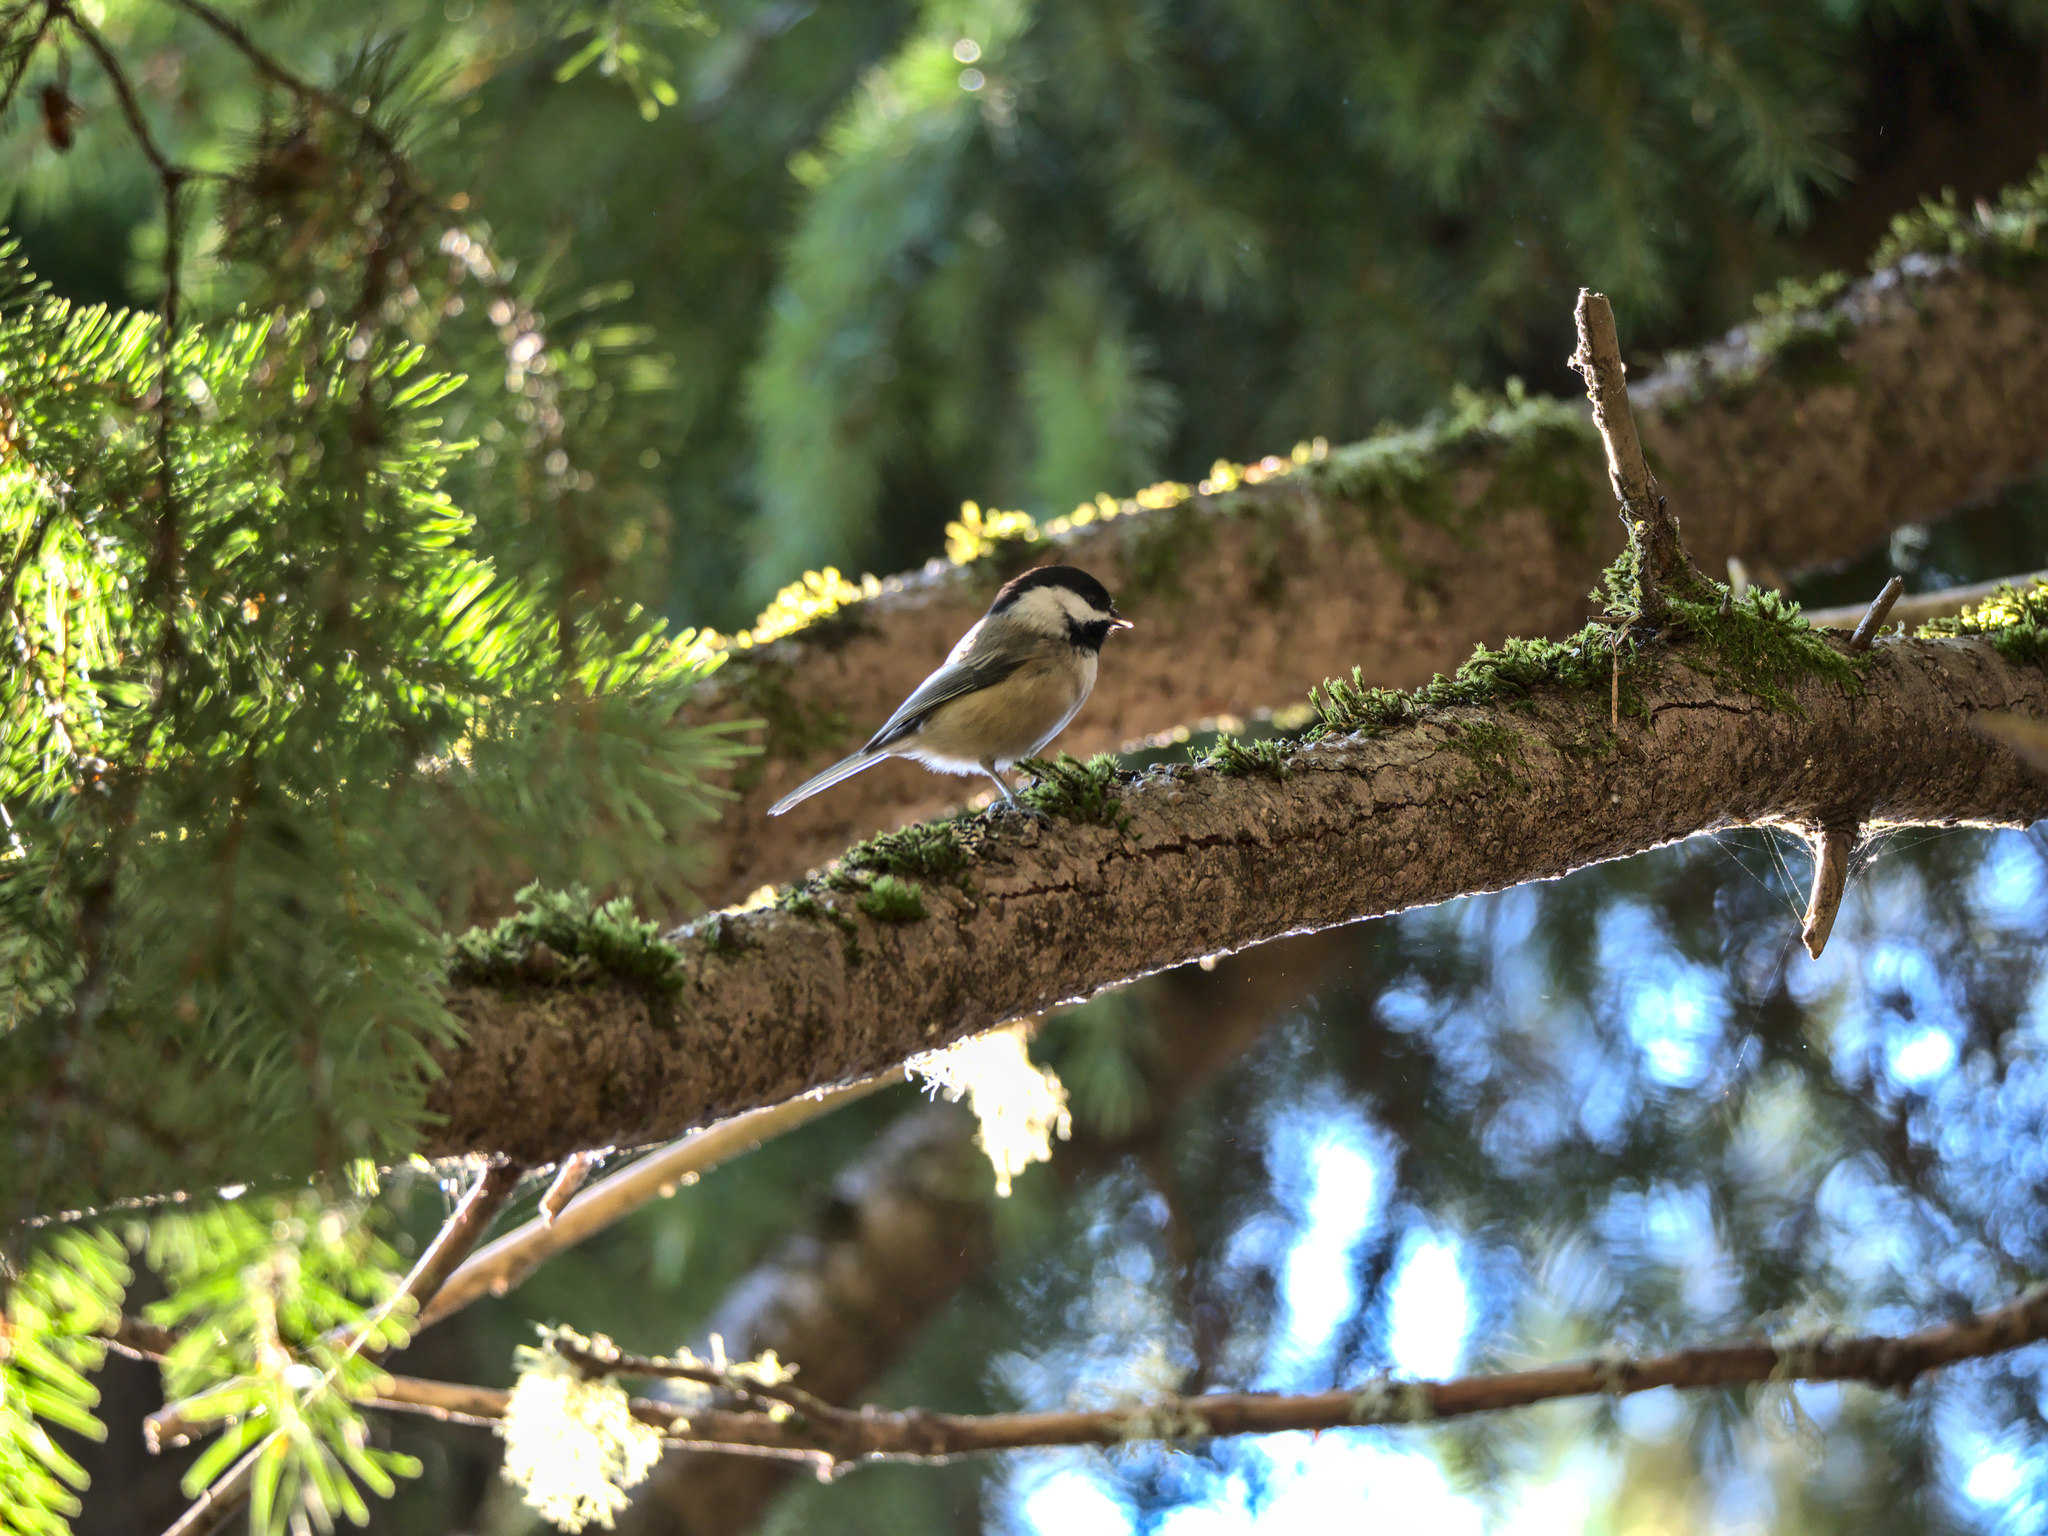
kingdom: Animalia
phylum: Chordata
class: Aves
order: Passeriformes
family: Paridae
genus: Poecile
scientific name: Poecile atricapillus
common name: Black-capped chickadee
